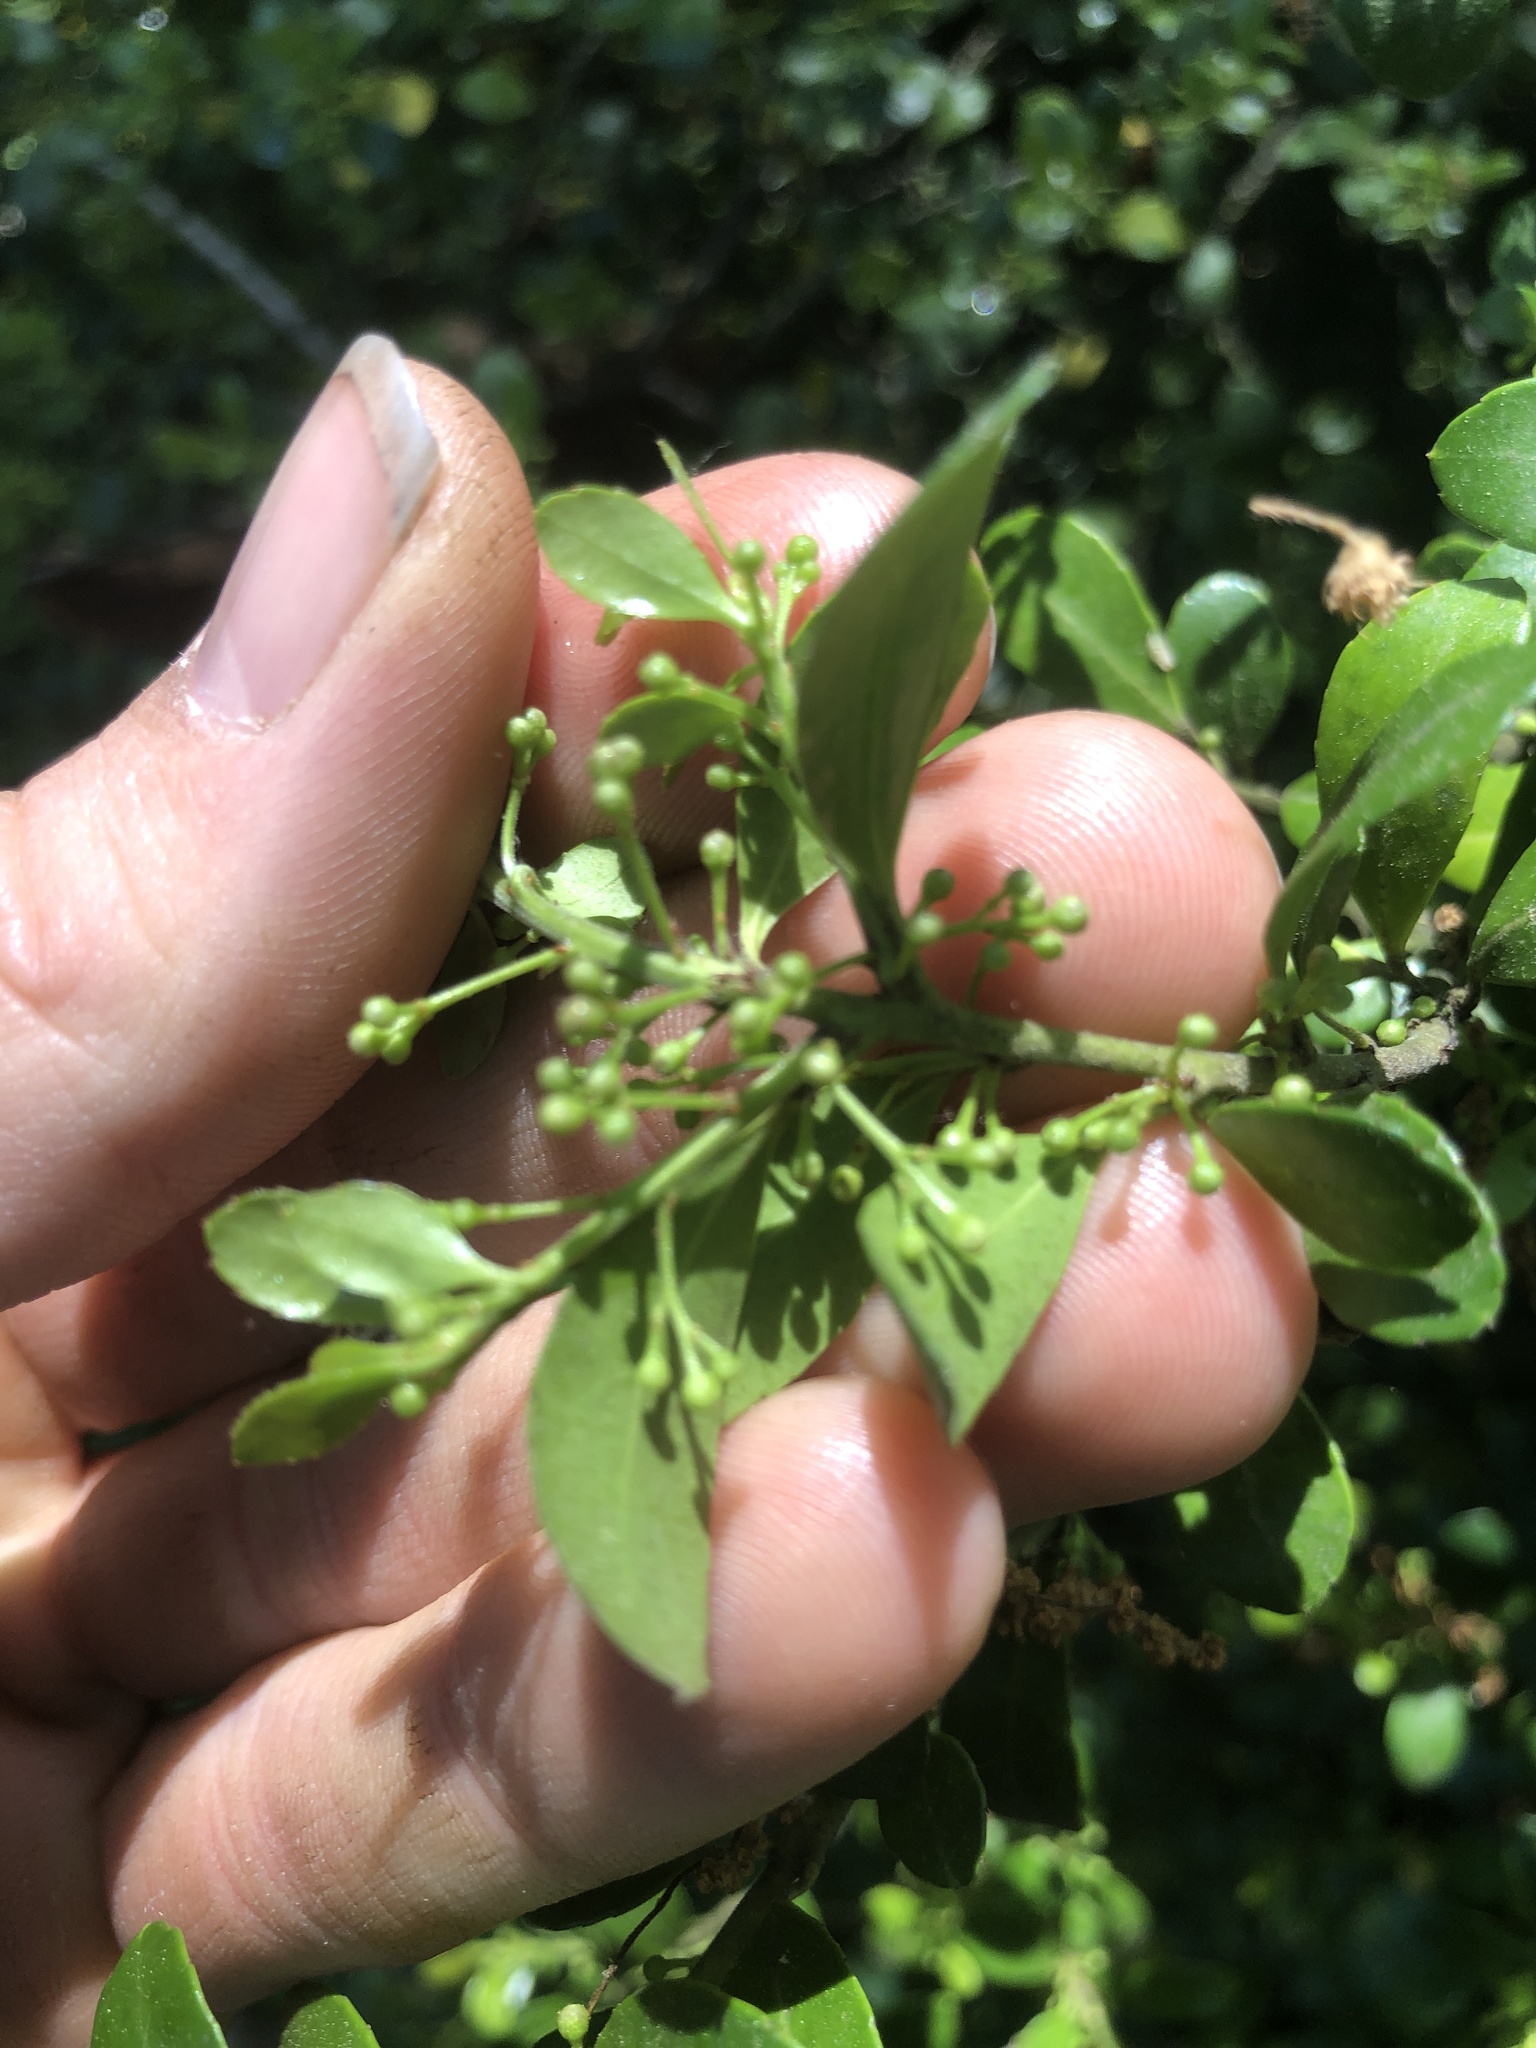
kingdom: Plantae
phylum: Tracheophyta
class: Magnoliopsida
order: Aquifoliales
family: Aquifoliaceae
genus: Ilex
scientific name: Ilex crenata
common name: Japanese holly
